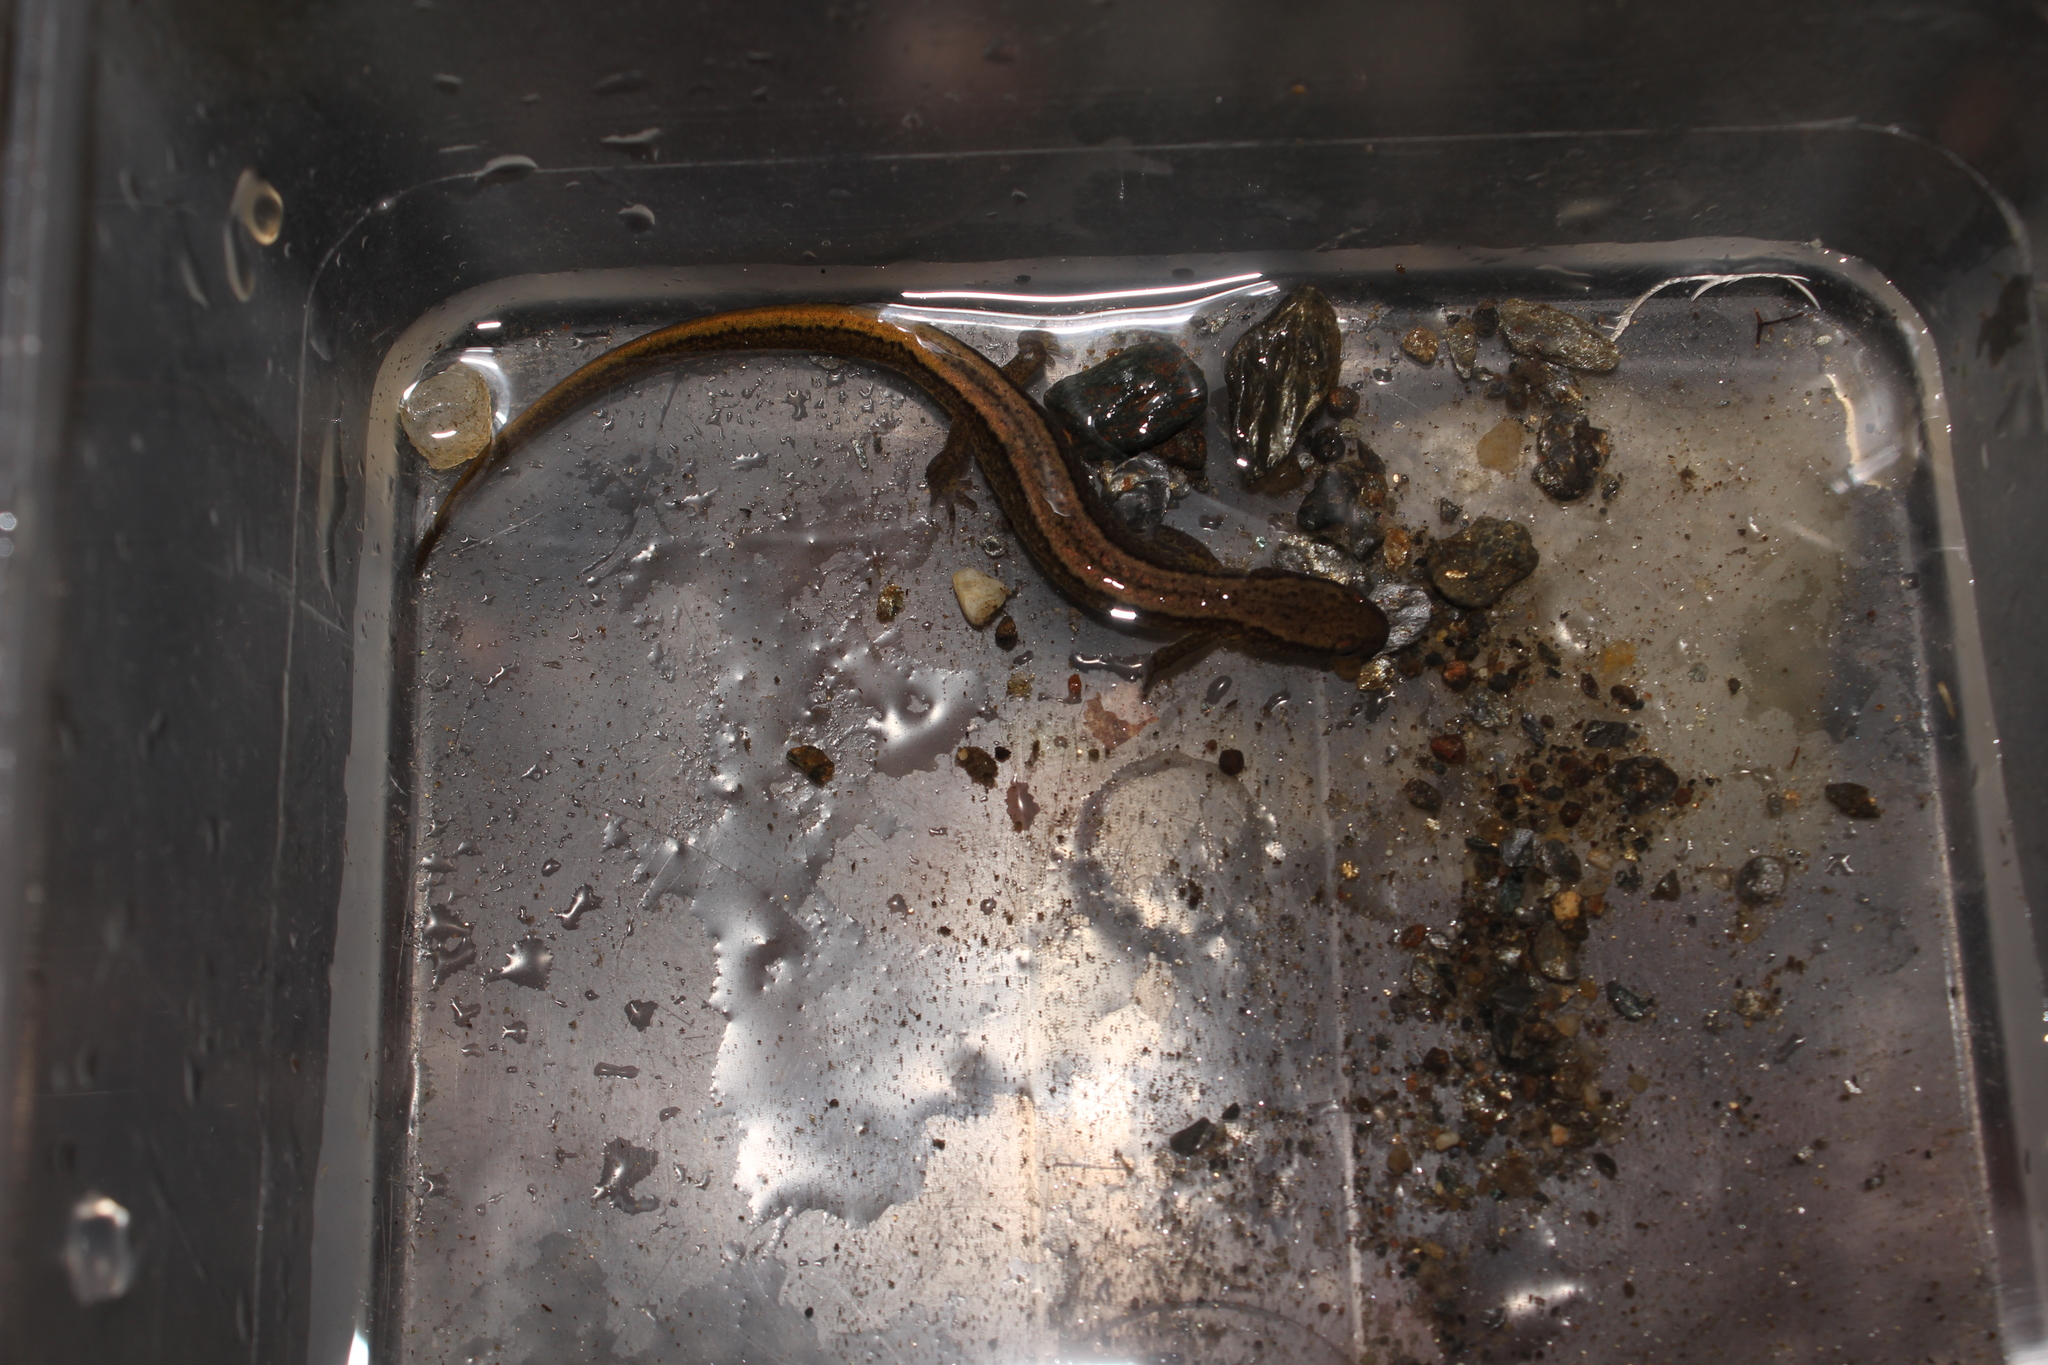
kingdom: Animalia
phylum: Chordata
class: Amphibia
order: Caudata
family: Plethodontidae
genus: Eurycea
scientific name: Eurycea bislineata
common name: Northern two-lined salamander
